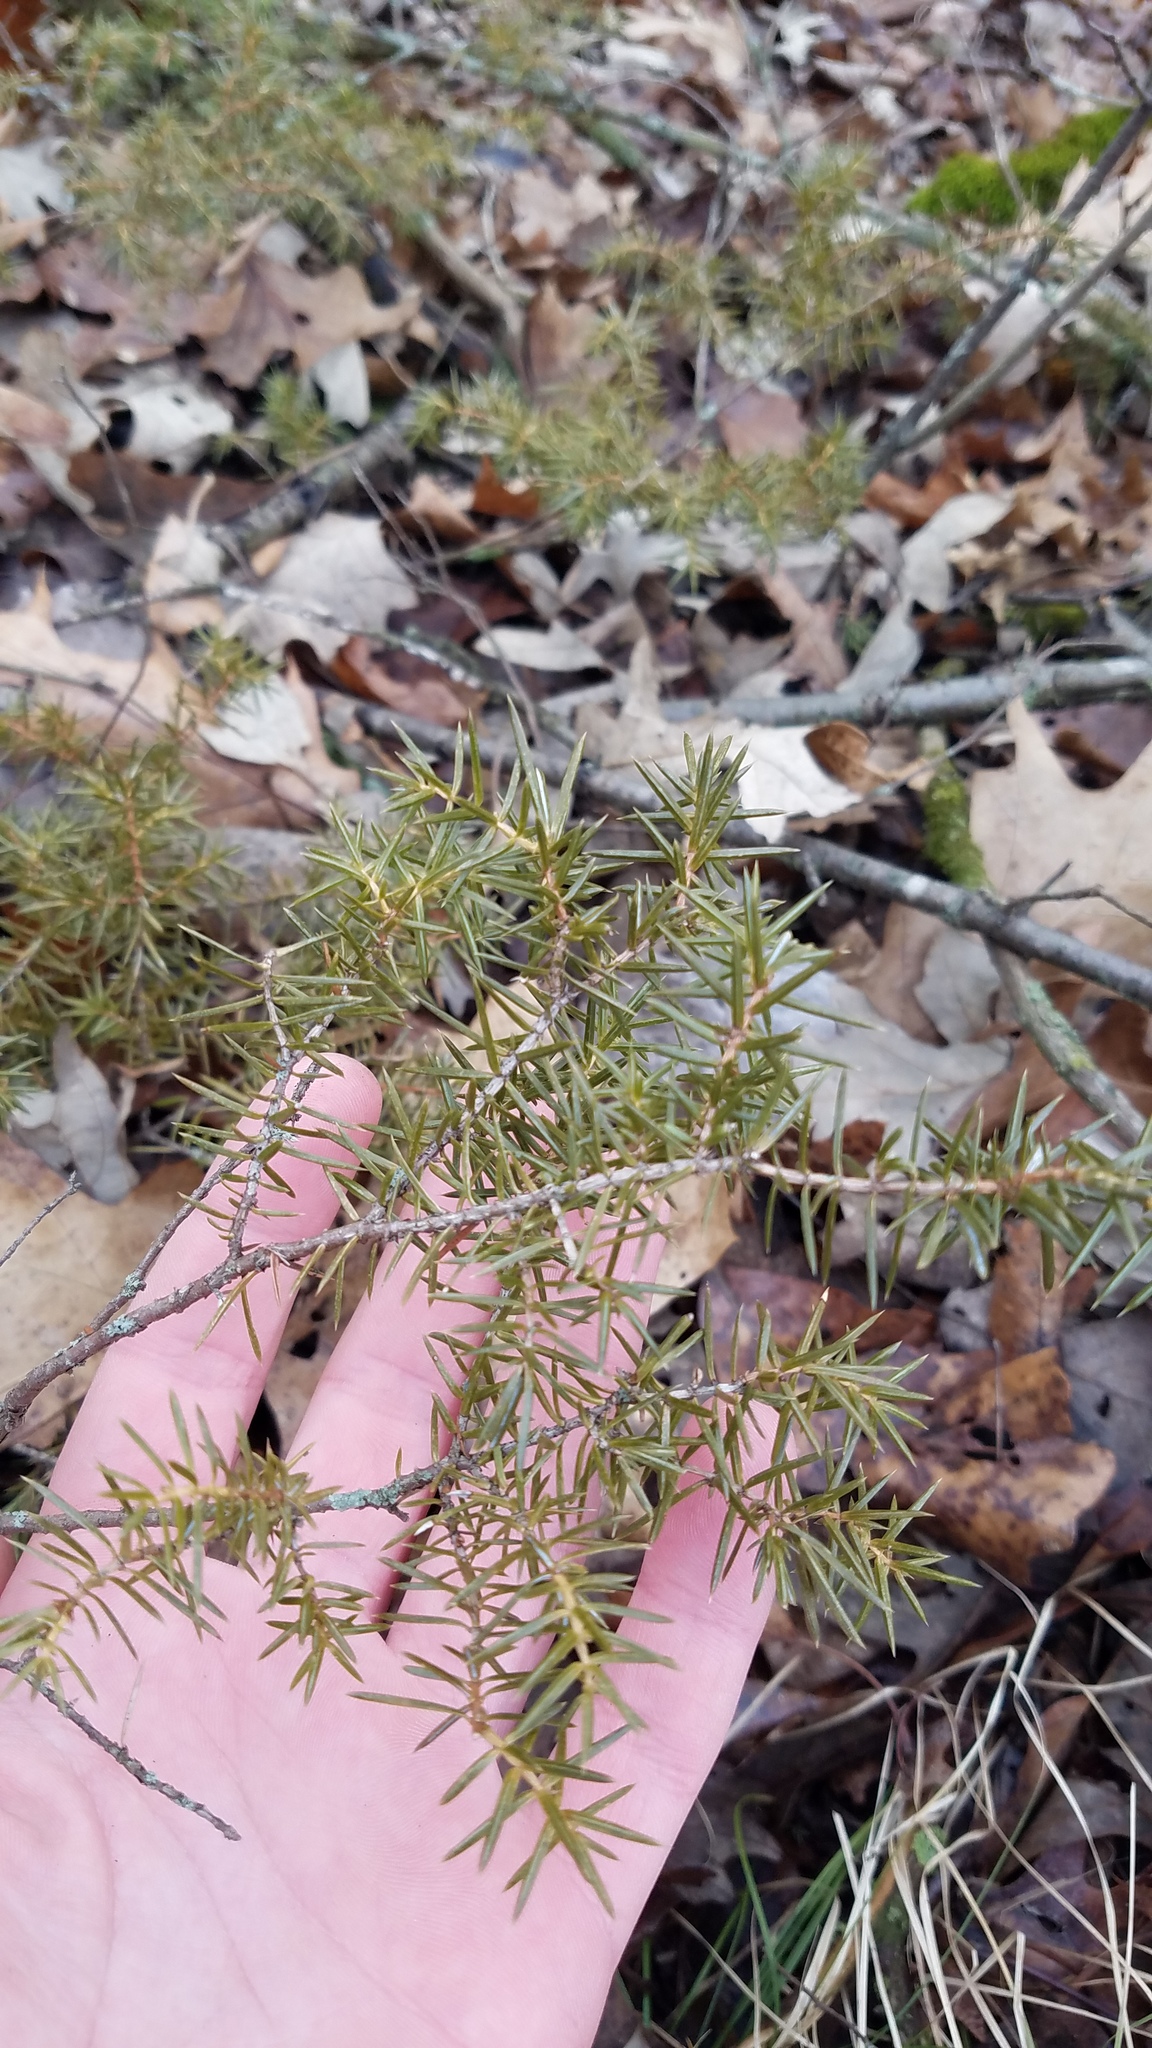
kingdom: Plantae
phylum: Tracheophyta
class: Pinopsida
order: Pinales
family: Cupressaceae
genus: Juniperus
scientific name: Juniperus communis
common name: Common juniper
